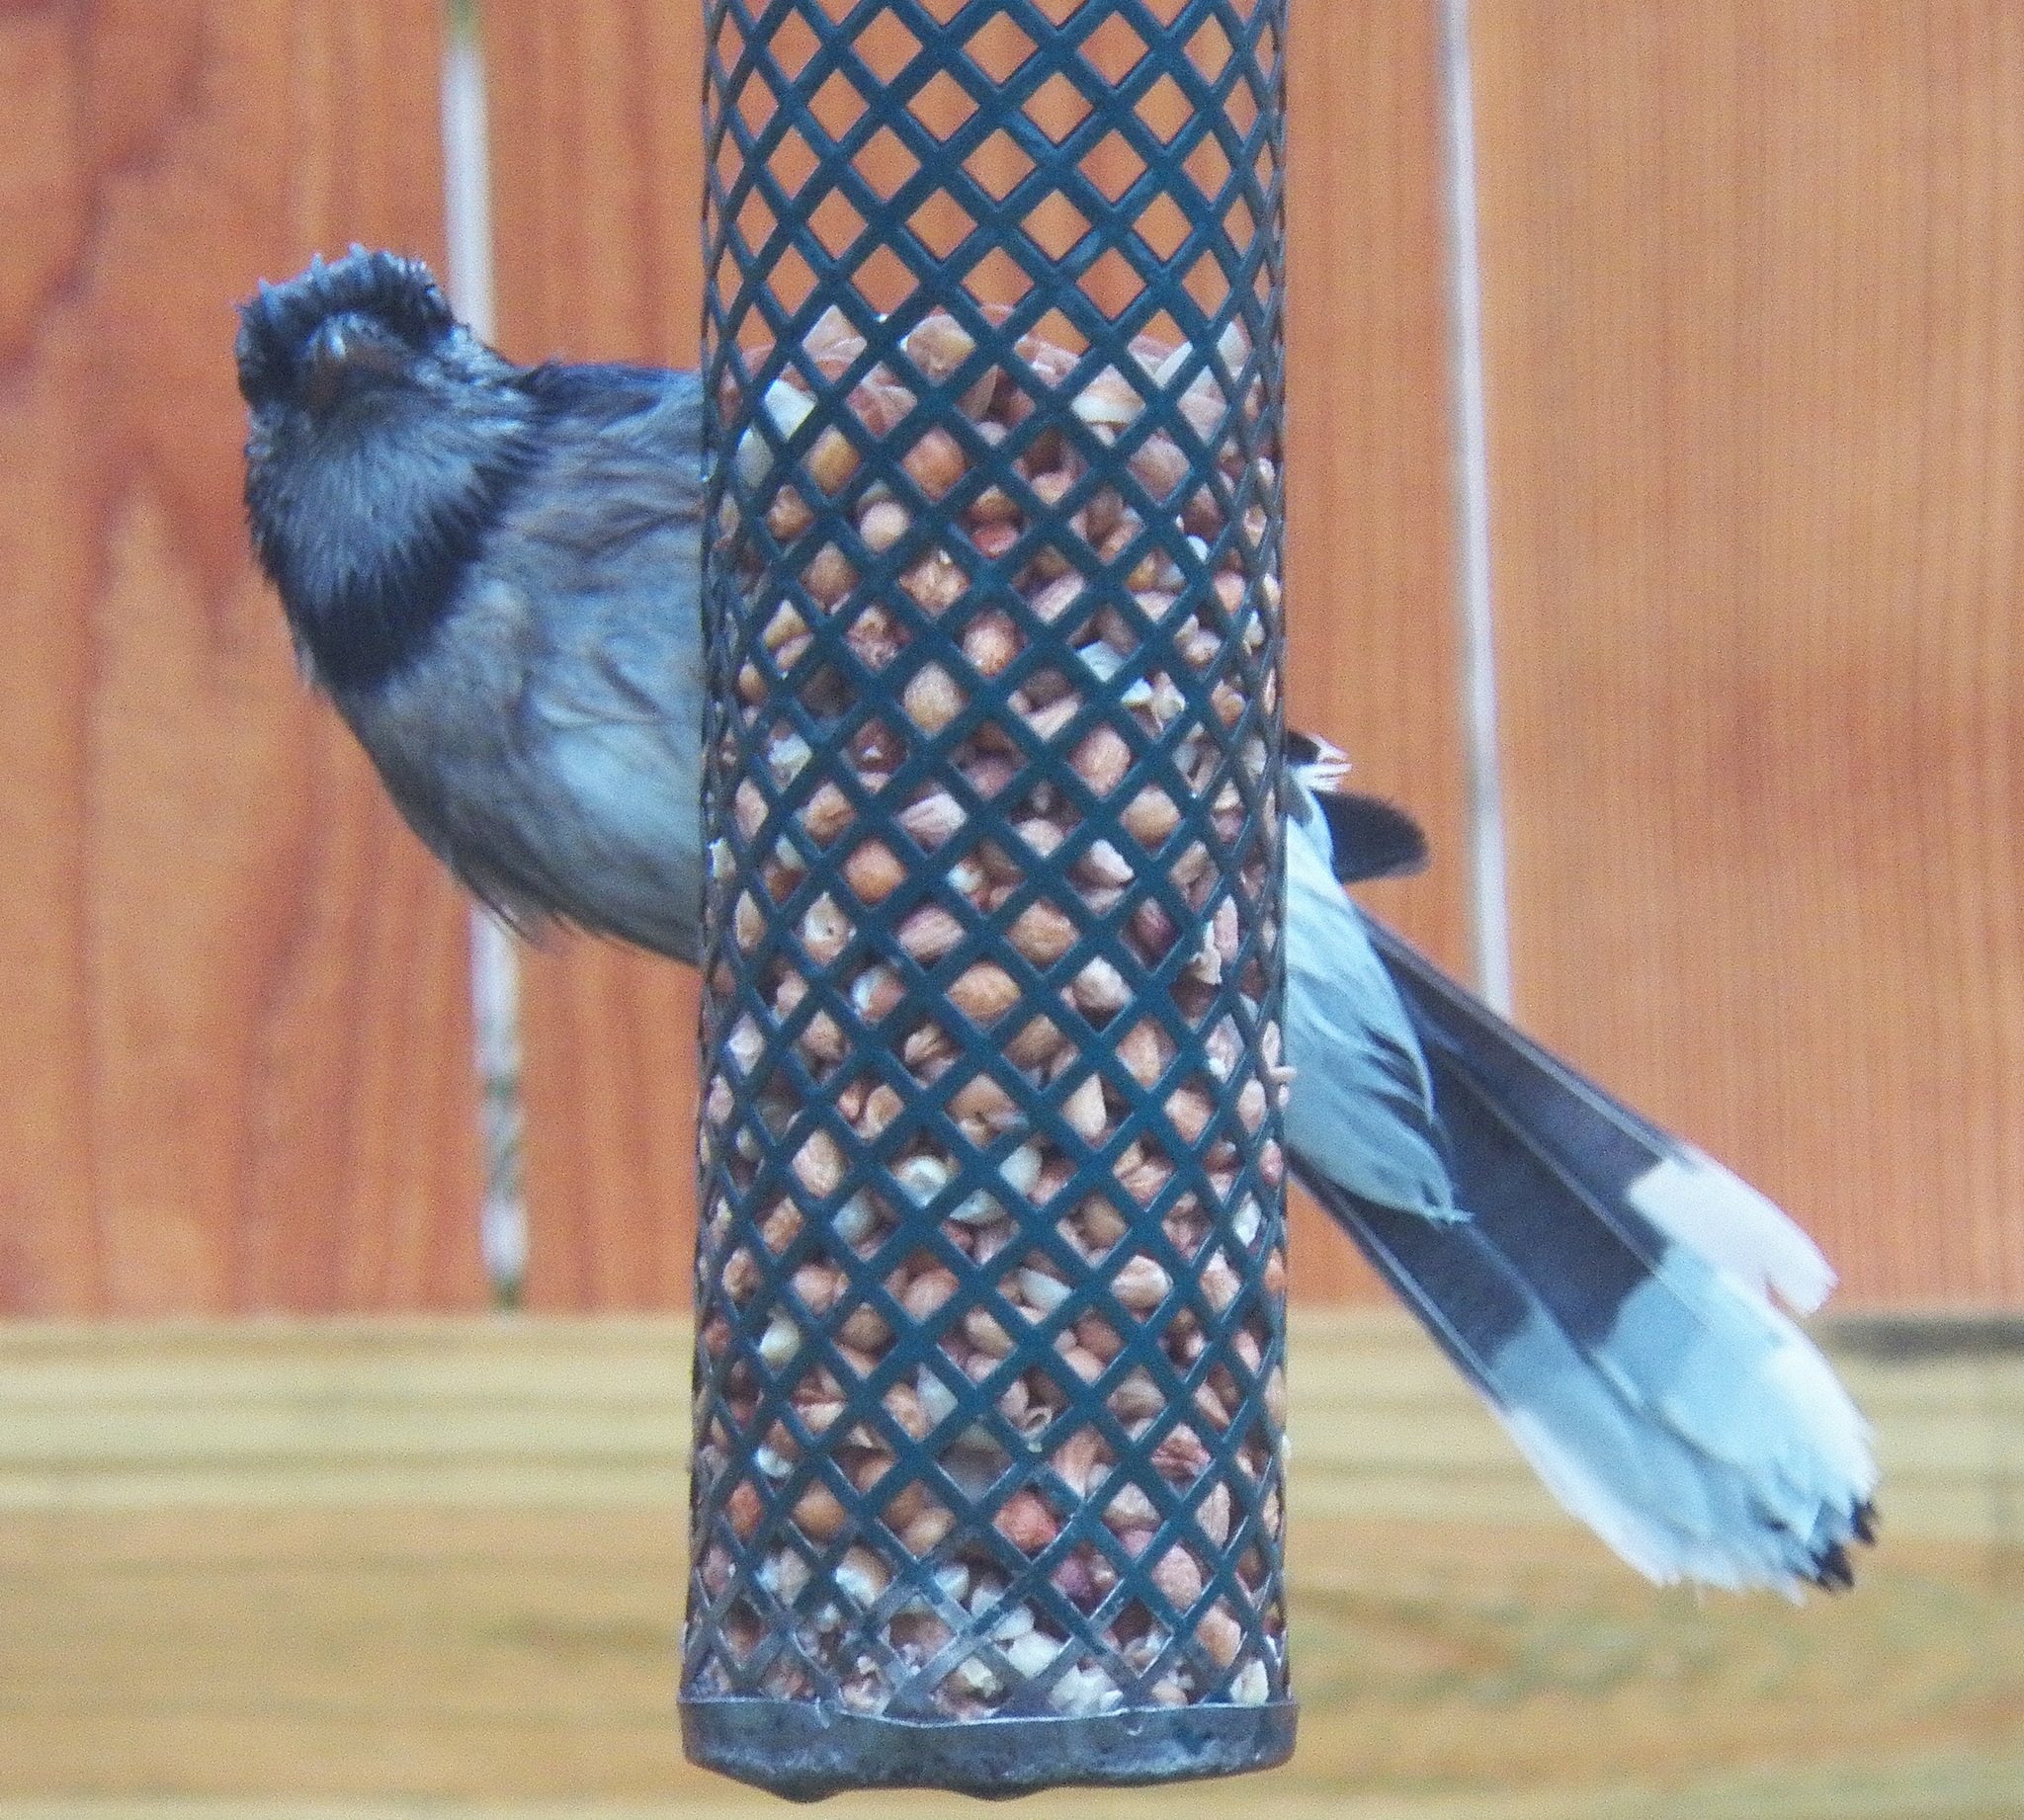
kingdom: Animalia
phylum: Chordata
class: Aves
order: Passeriformes
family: Corvidae
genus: Cyanocitta
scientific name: Cyanocitta cristata
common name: Blue jay
